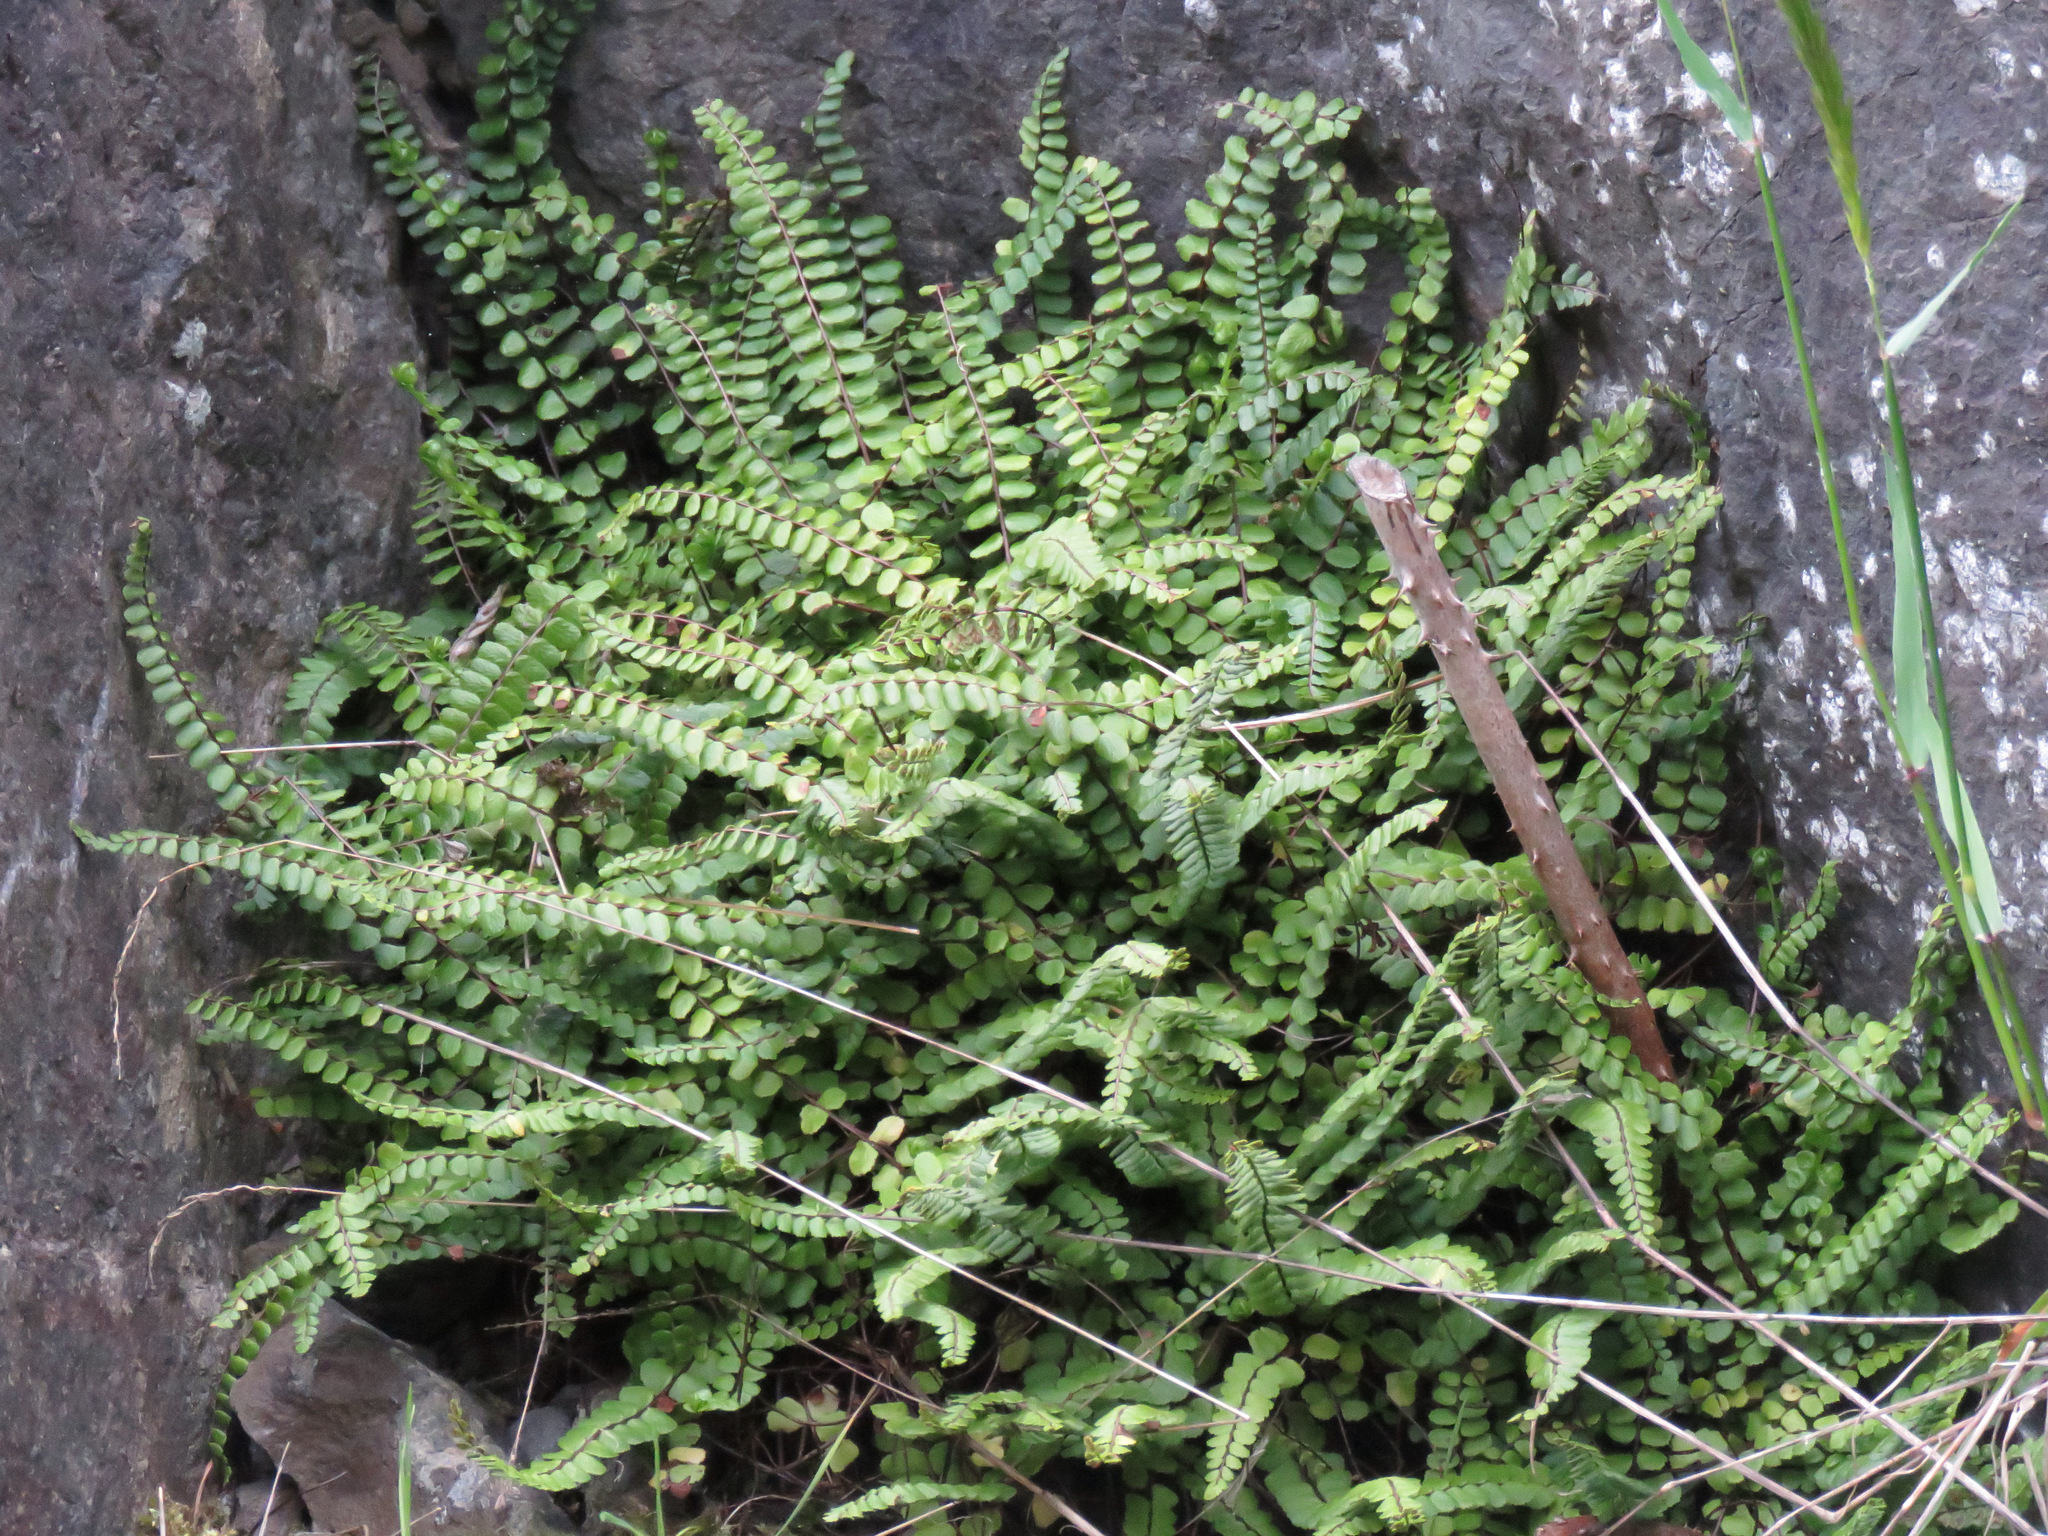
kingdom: Plantae
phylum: Tracheophyta
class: Polypodiopsida
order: Polypodiales
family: Aspleniaceae
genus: Asplenium
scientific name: Asplenium trichomanes
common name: Maidenhair spleenwort
